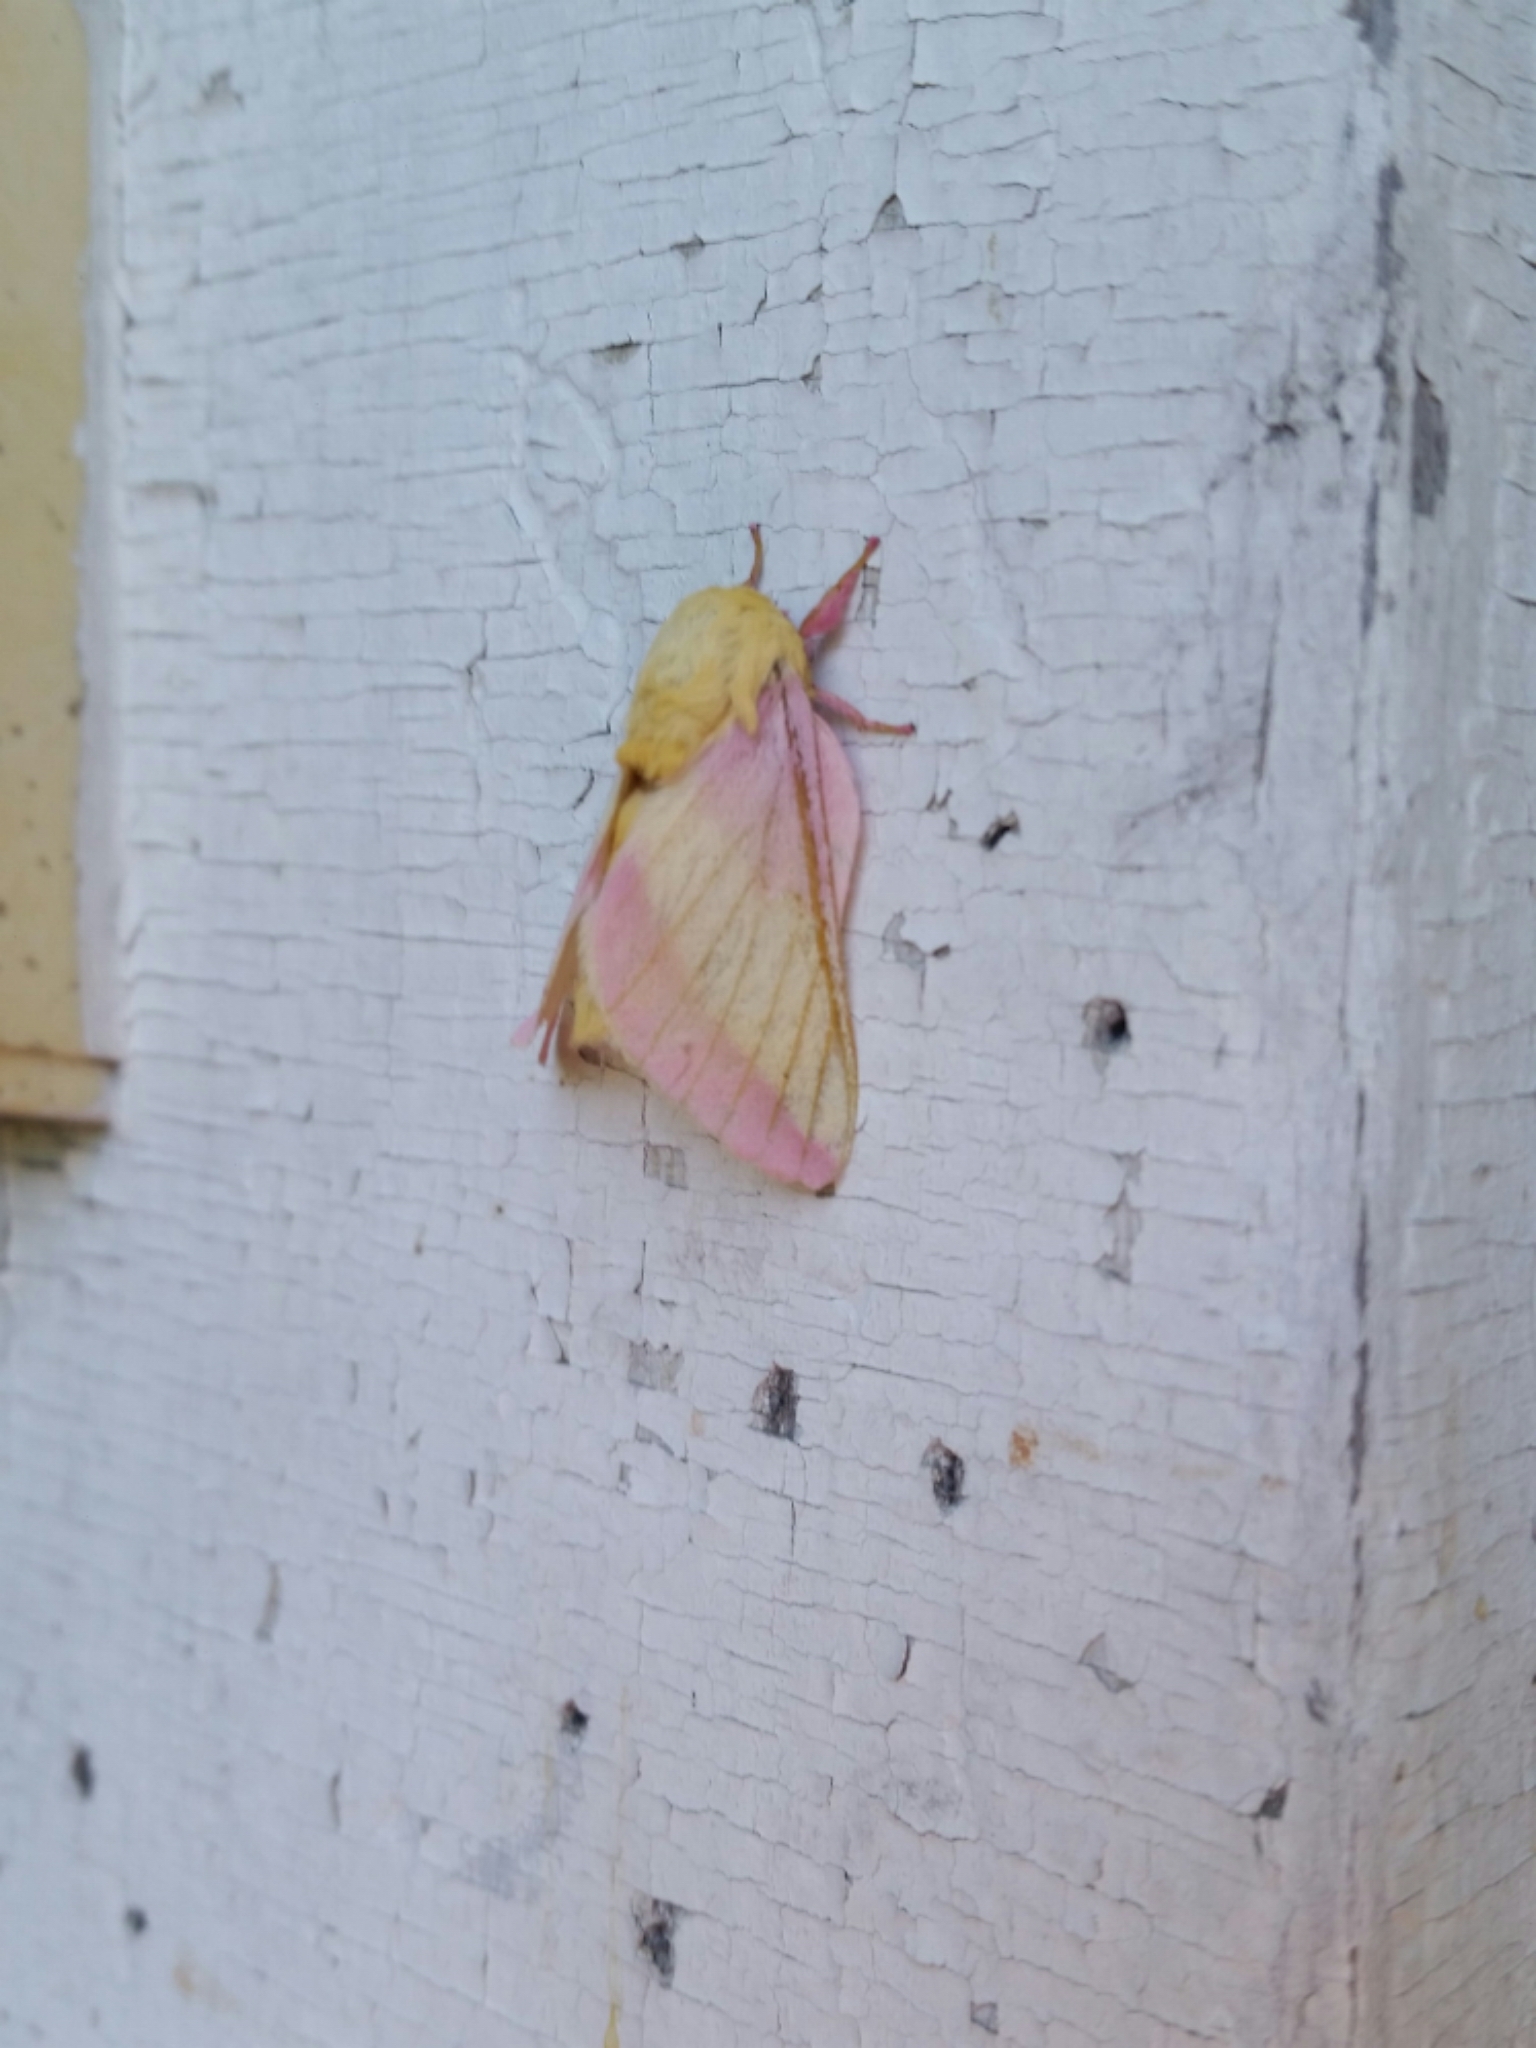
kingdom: Animalia
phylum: Arthropoda
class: Insecta
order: Lepidoptera
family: Saturniidae
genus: Dryocampa
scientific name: Dryocampa rubicunda
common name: Rosy maple moth
